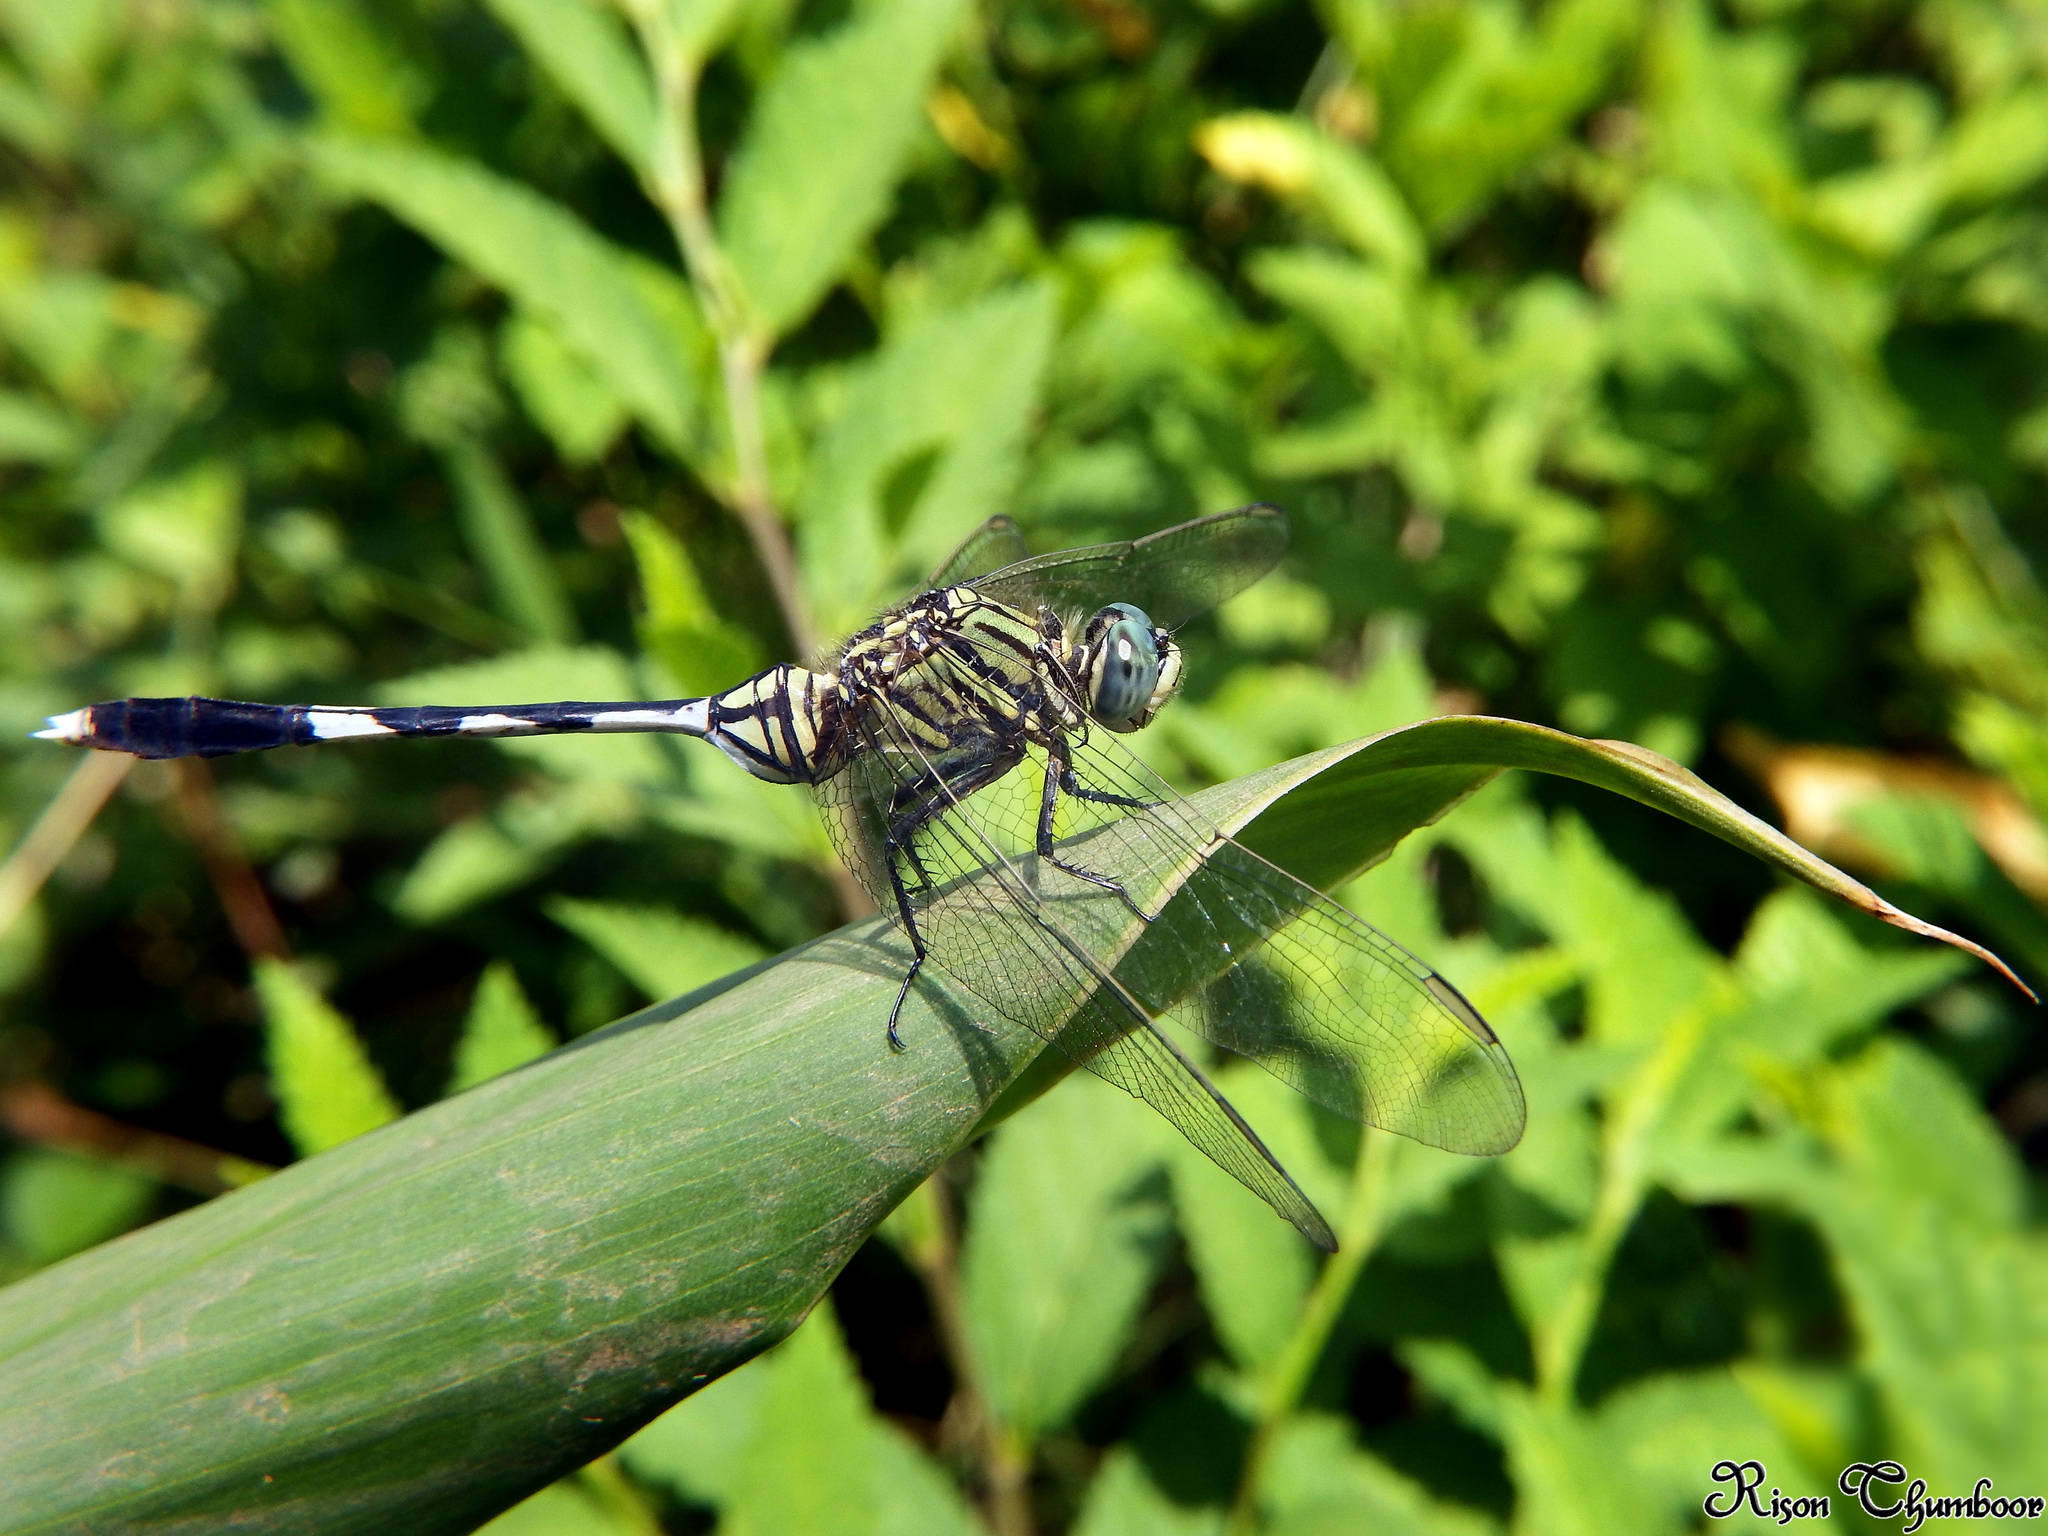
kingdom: Animalia
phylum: Arthropoda
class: Insecta
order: Odonata
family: Libellulidae
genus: Orthetrum
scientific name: Orthetrum sabina
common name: Slender skimmer
